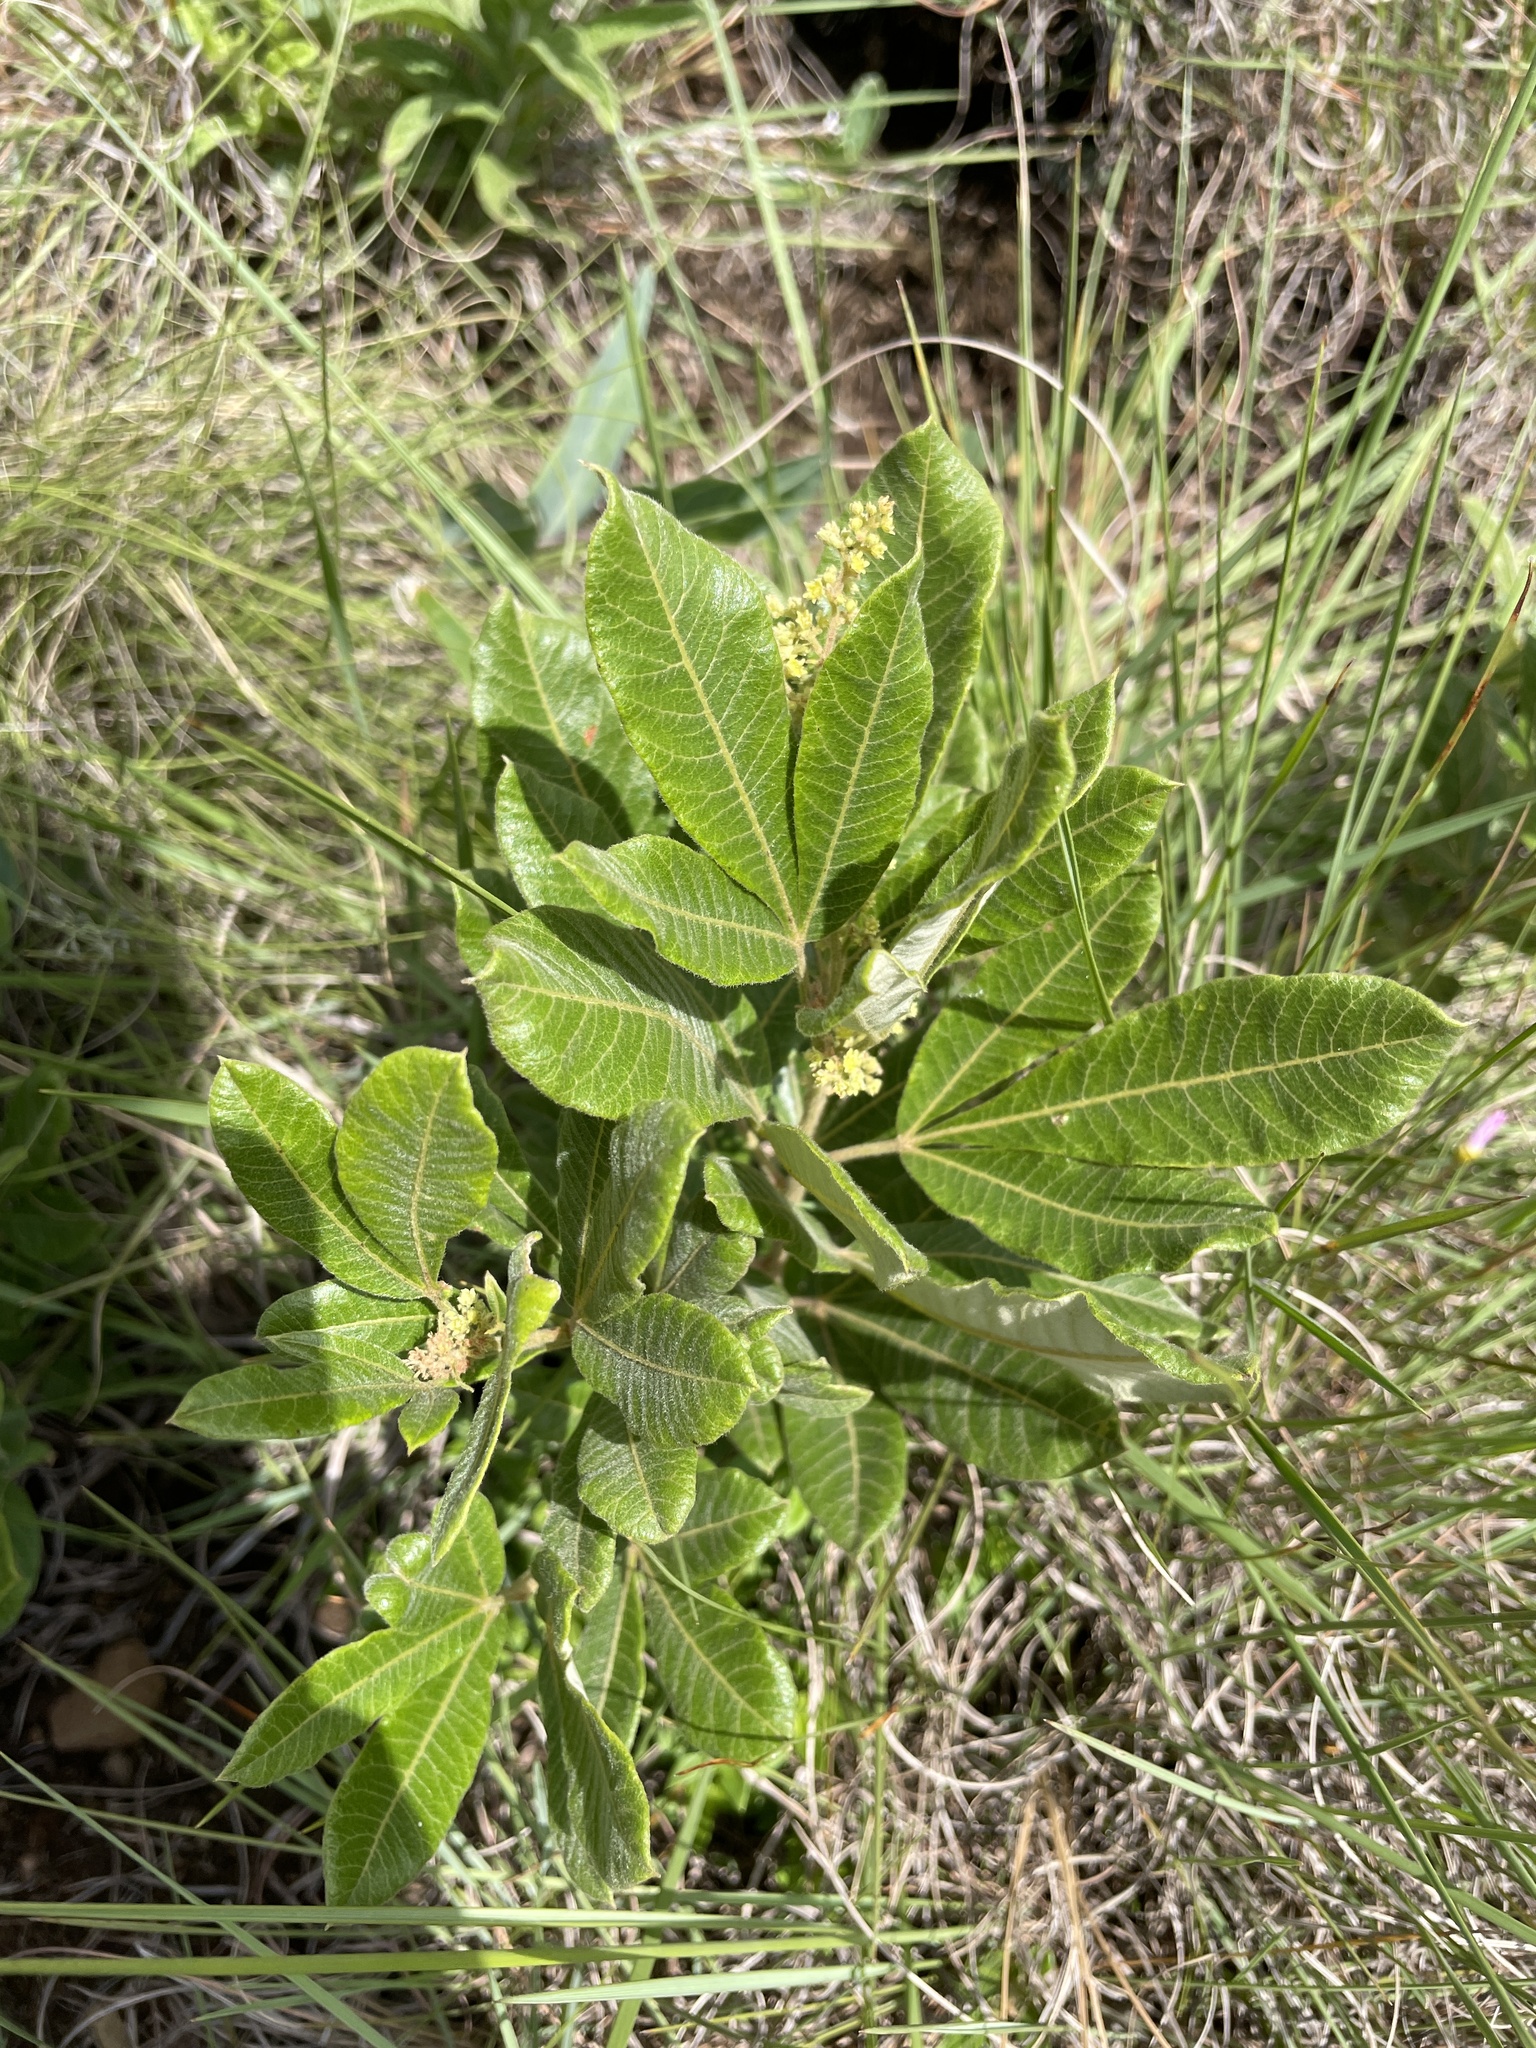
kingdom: Plantae
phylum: Tracheophyta
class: Magnoliopsida
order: Sapindales
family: Anacardiaceae
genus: Searsia
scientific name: Searsia discolor
